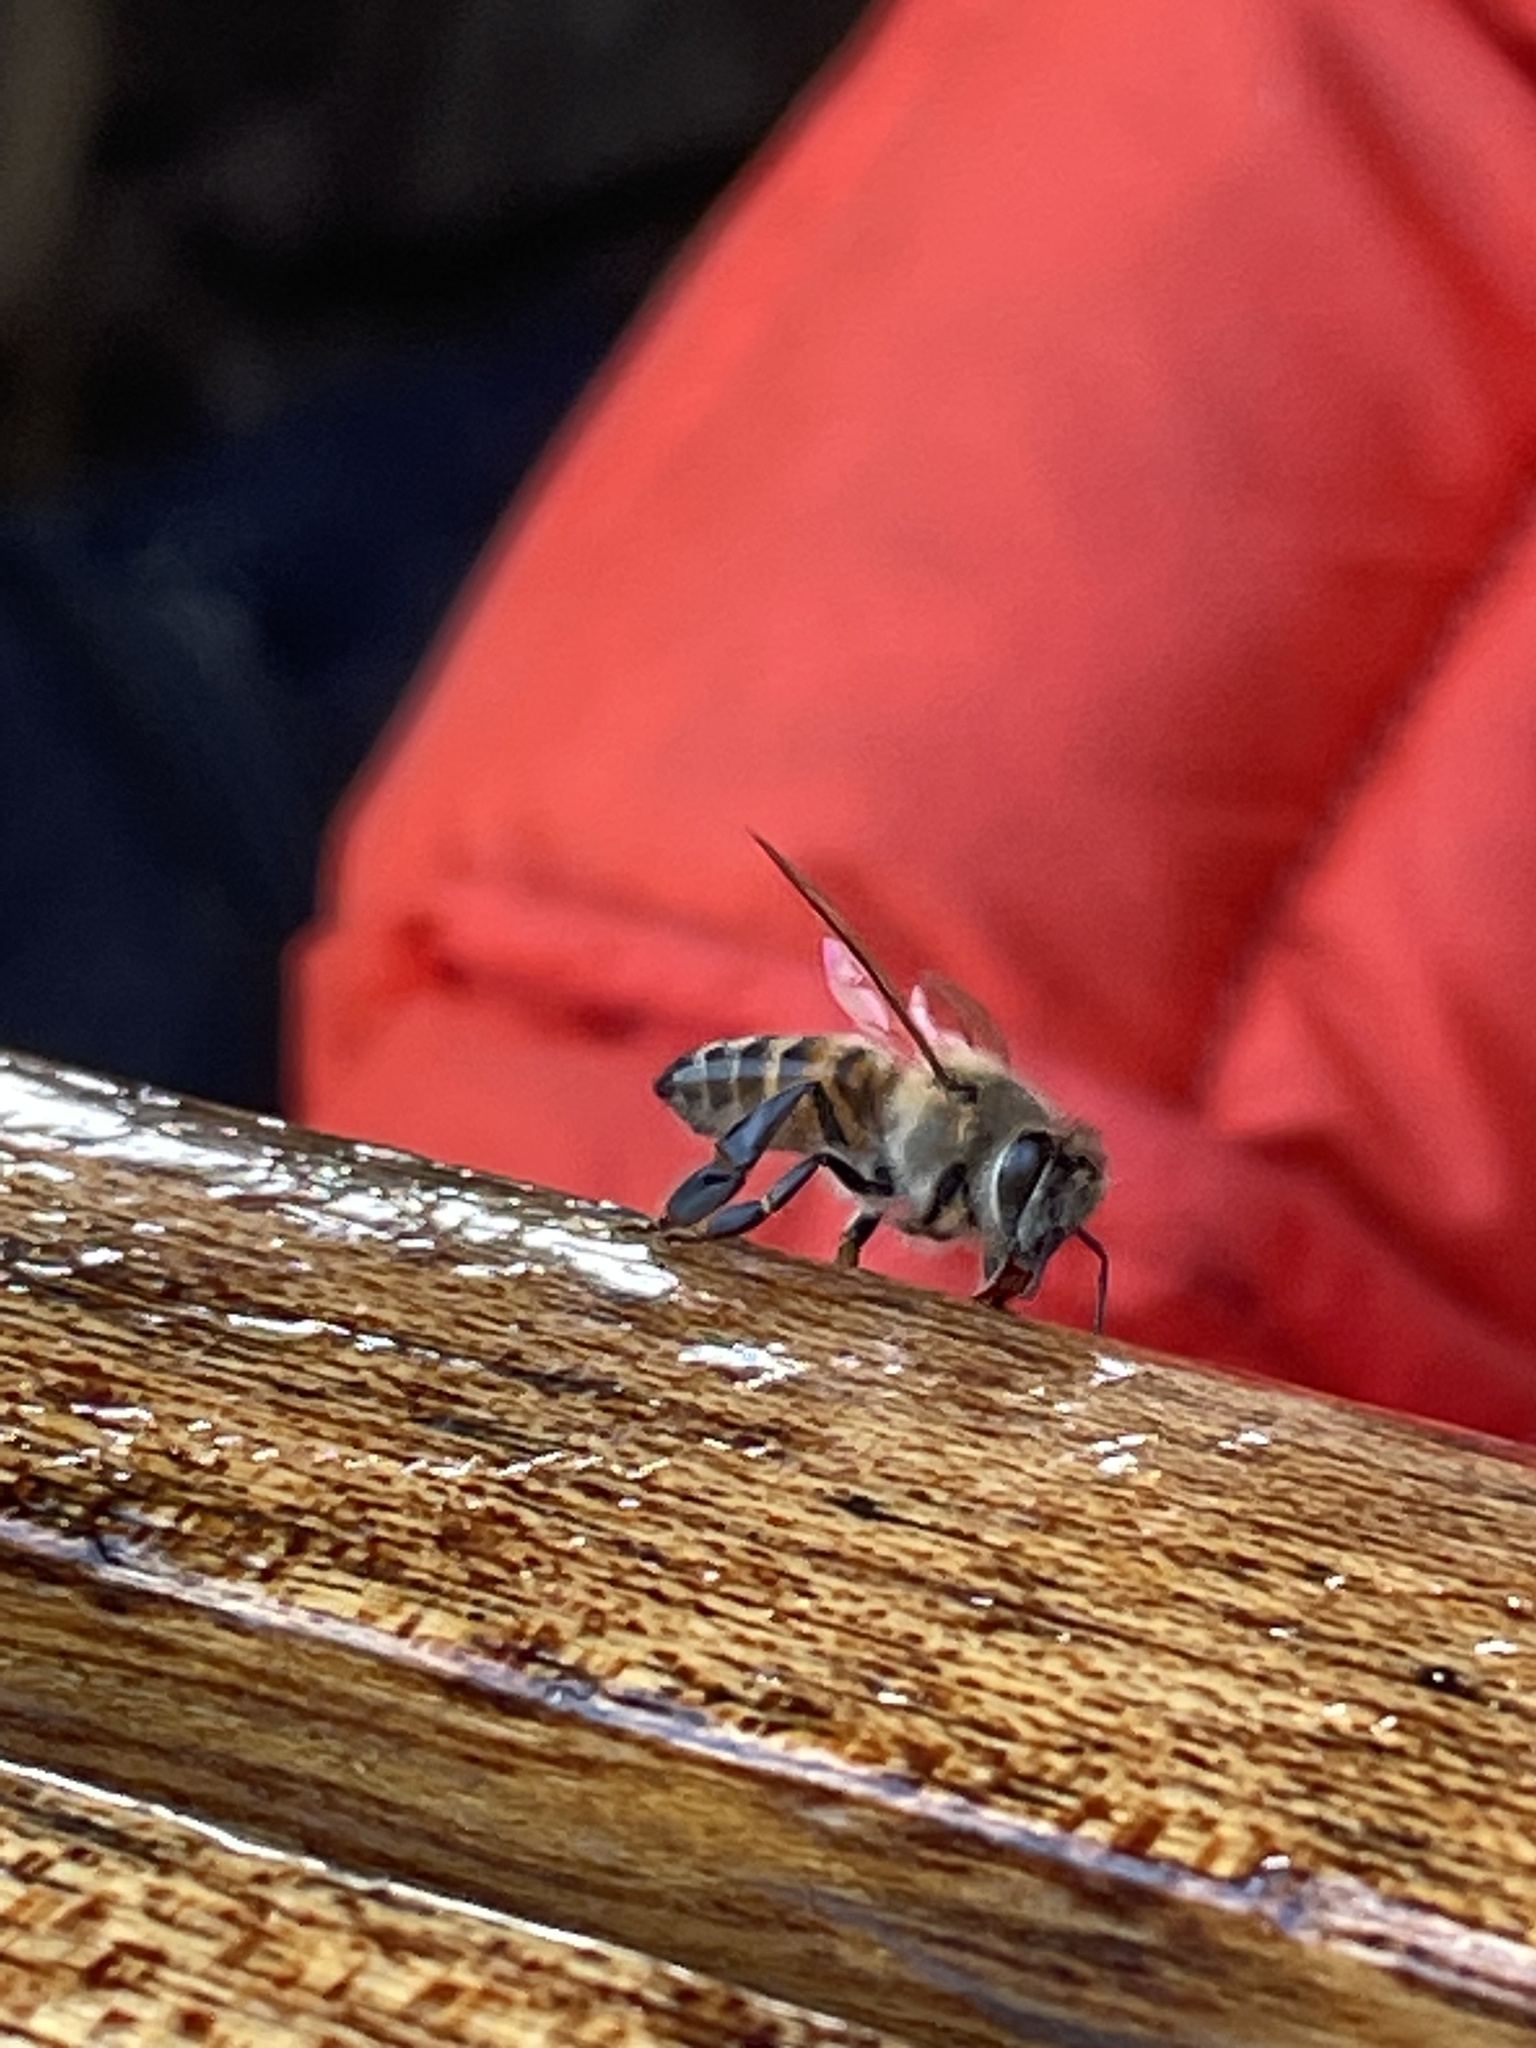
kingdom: Animalia
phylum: Arthropoda
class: Insecta
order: Hymenoptera
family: Apidae
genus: Apis
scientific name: Apis mellifera
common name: Honey bee
